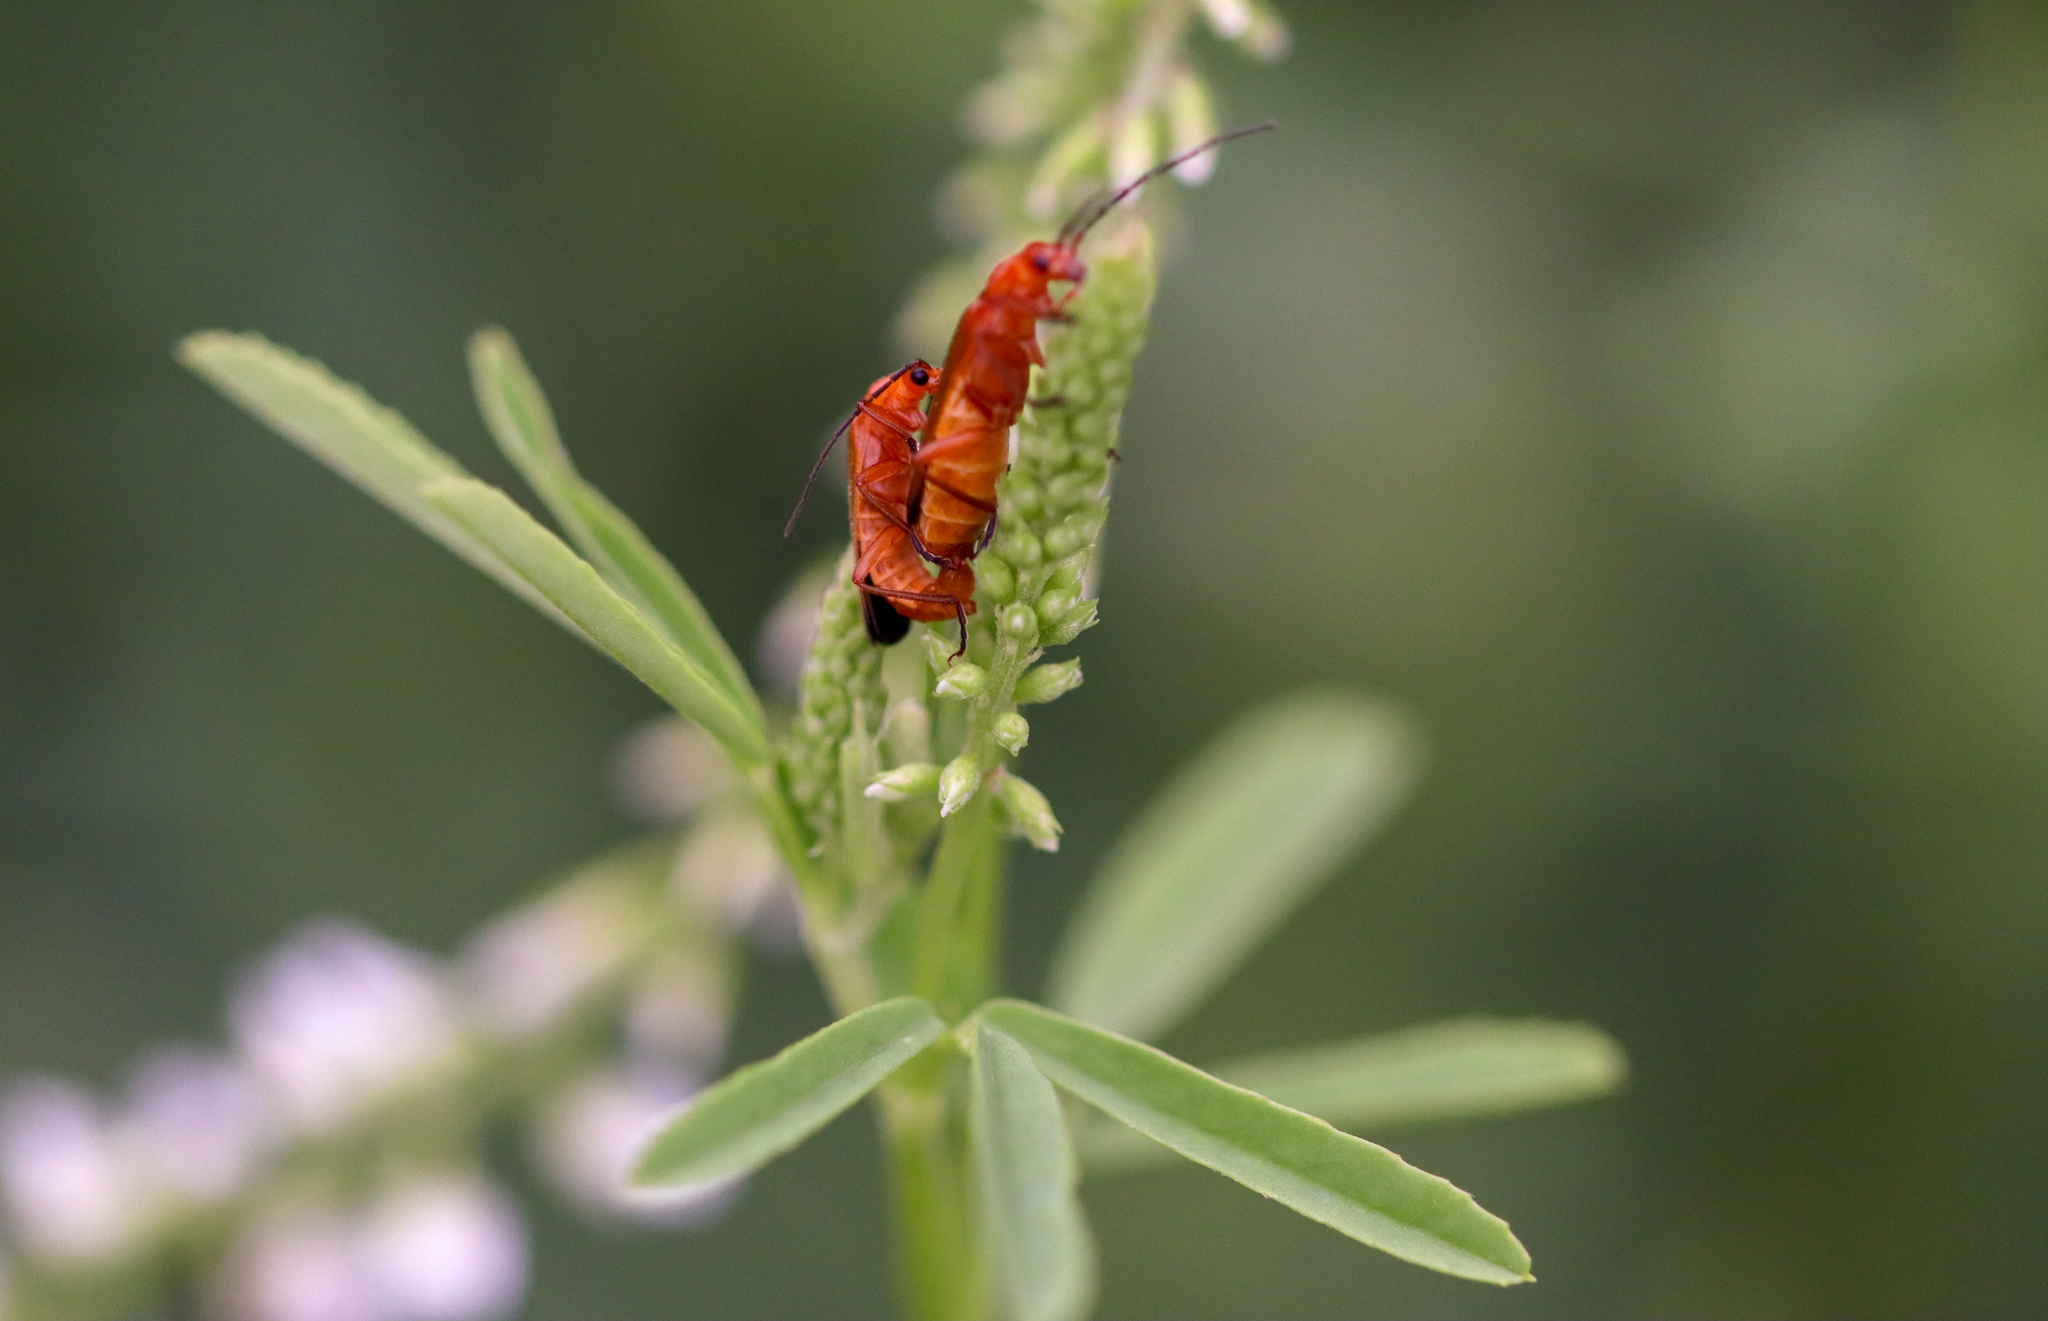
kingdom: Animalia
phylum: Arthropoda
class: Insecta
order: Coleoptera
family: Cantharidae
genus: Rhagonycha
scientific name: Rhagonycha fulva
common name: Common red soldier beetle
